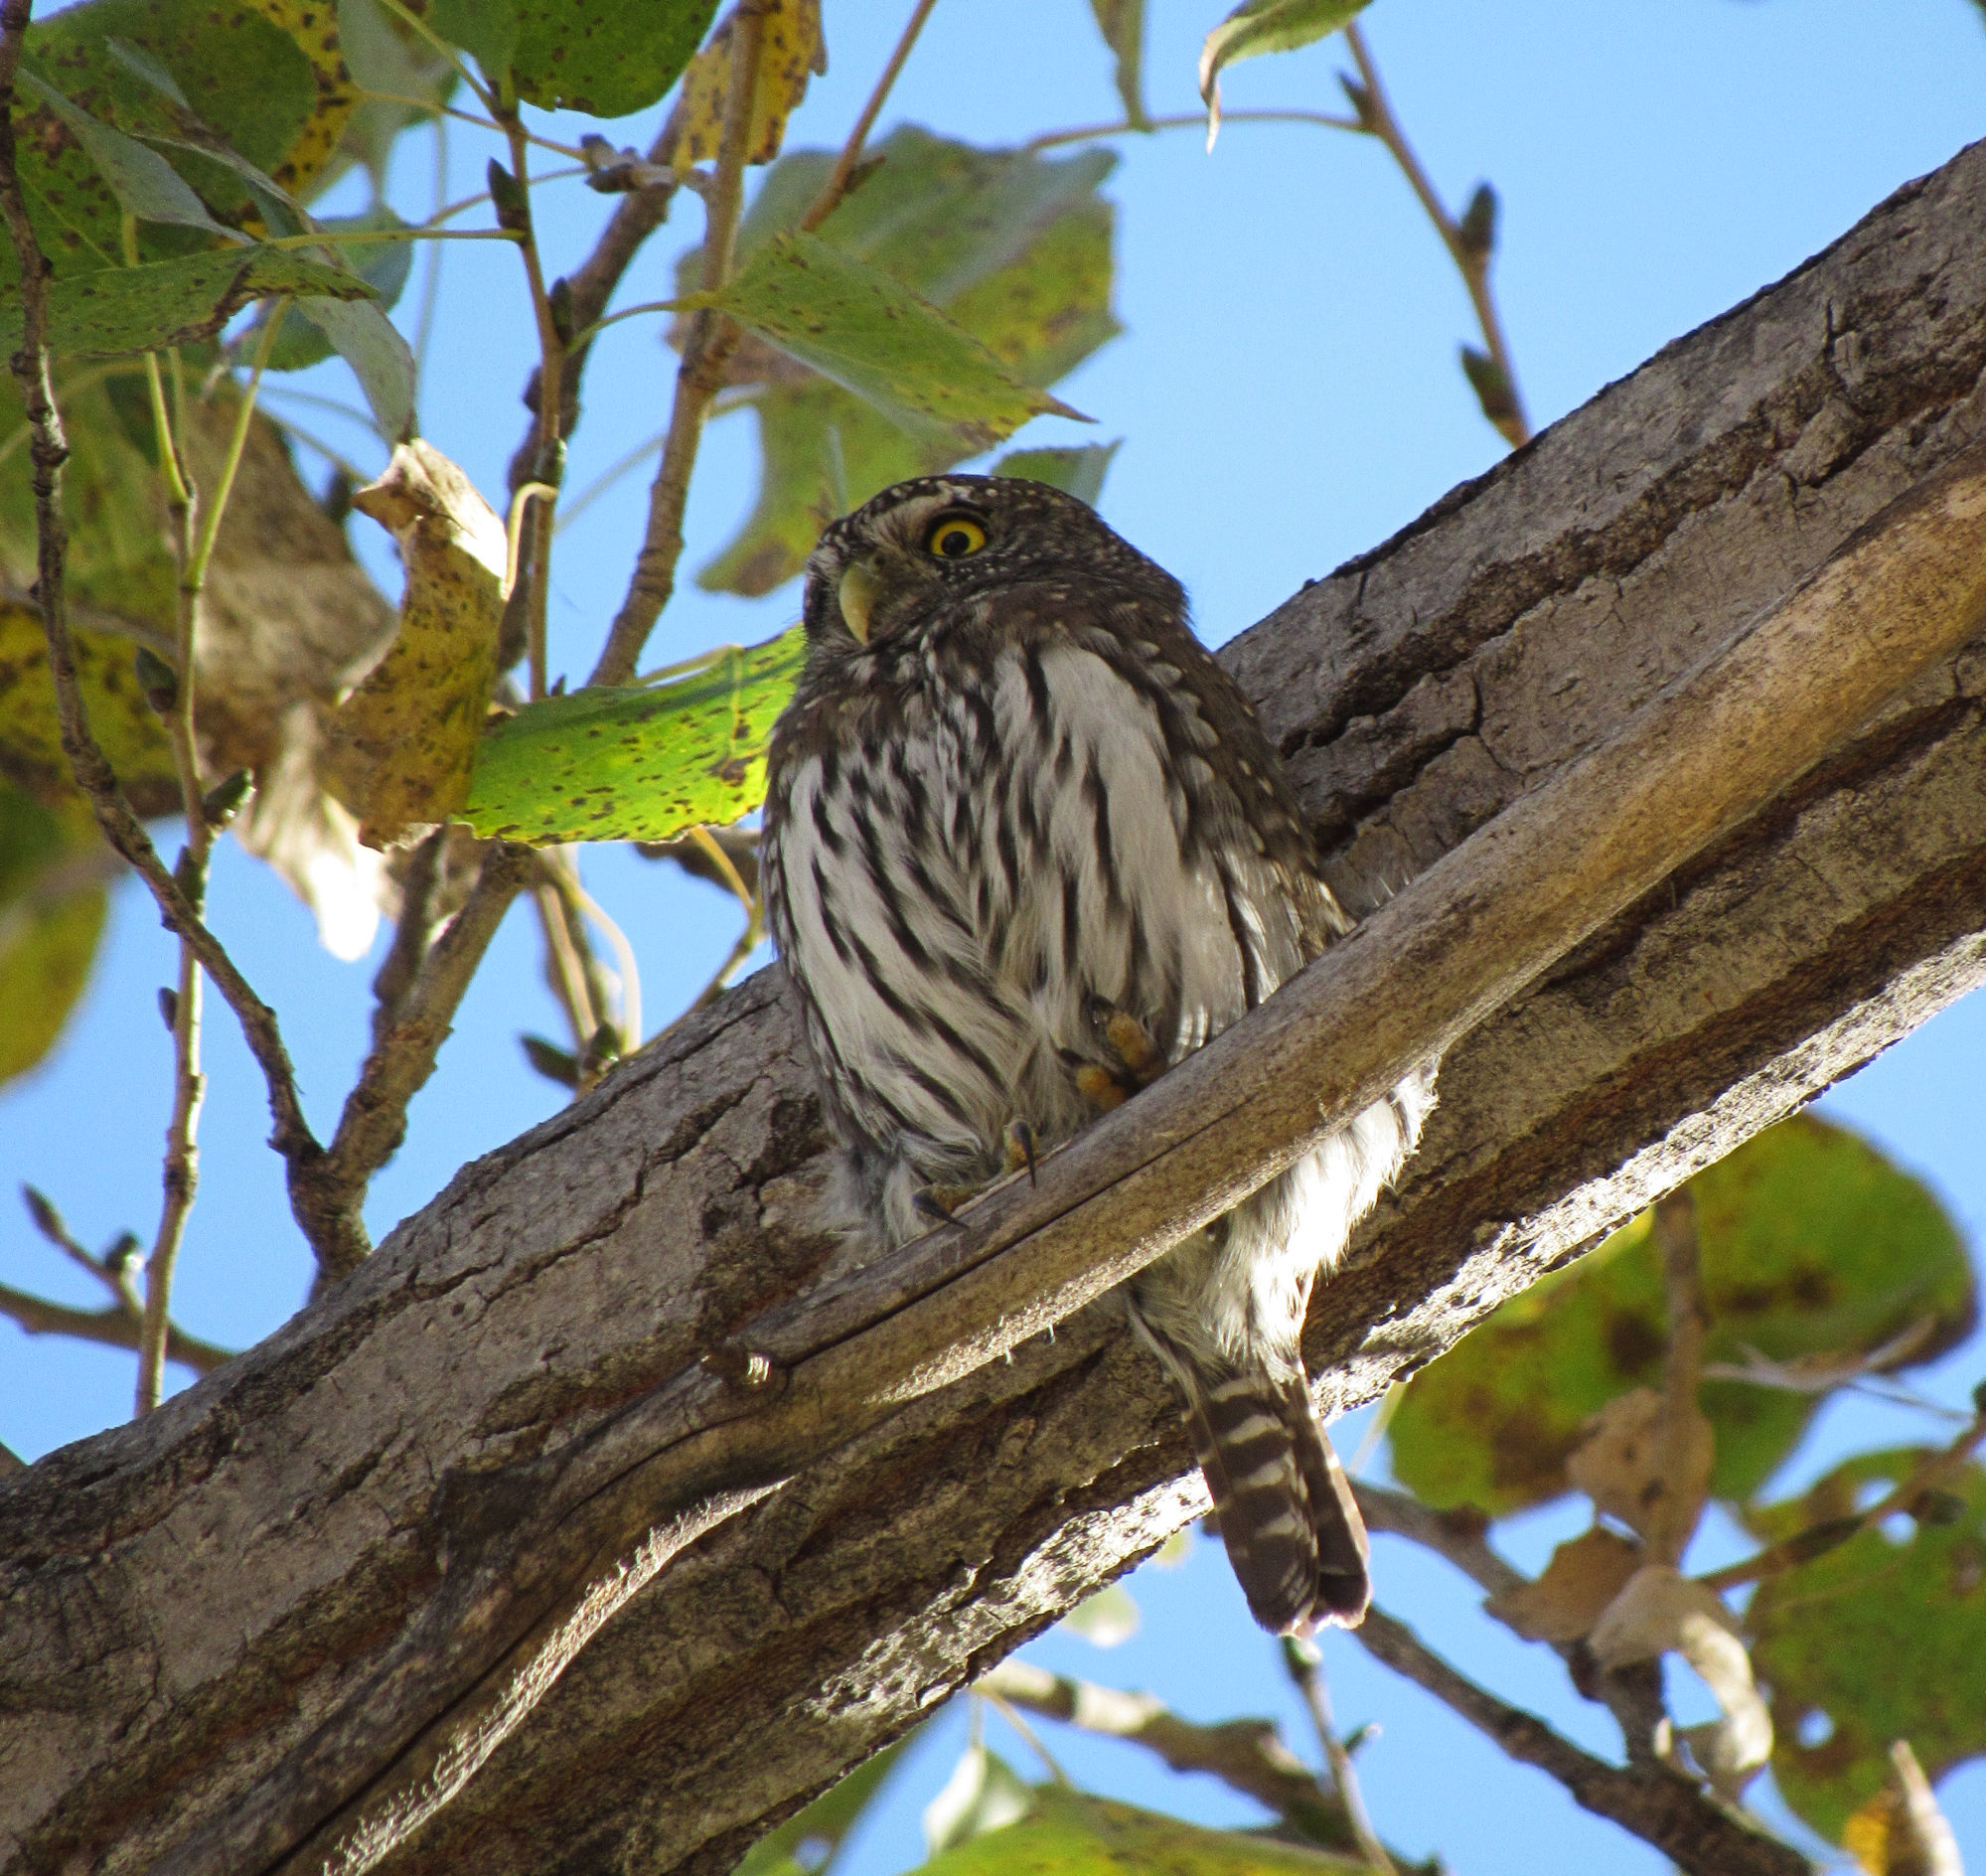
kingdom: Animalia
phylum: Chordata
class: Aves
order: Strigiformes
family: Strigidae
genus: Glaucidium
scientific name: Glaucidium gnoma
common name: Northern pygmy-owl
